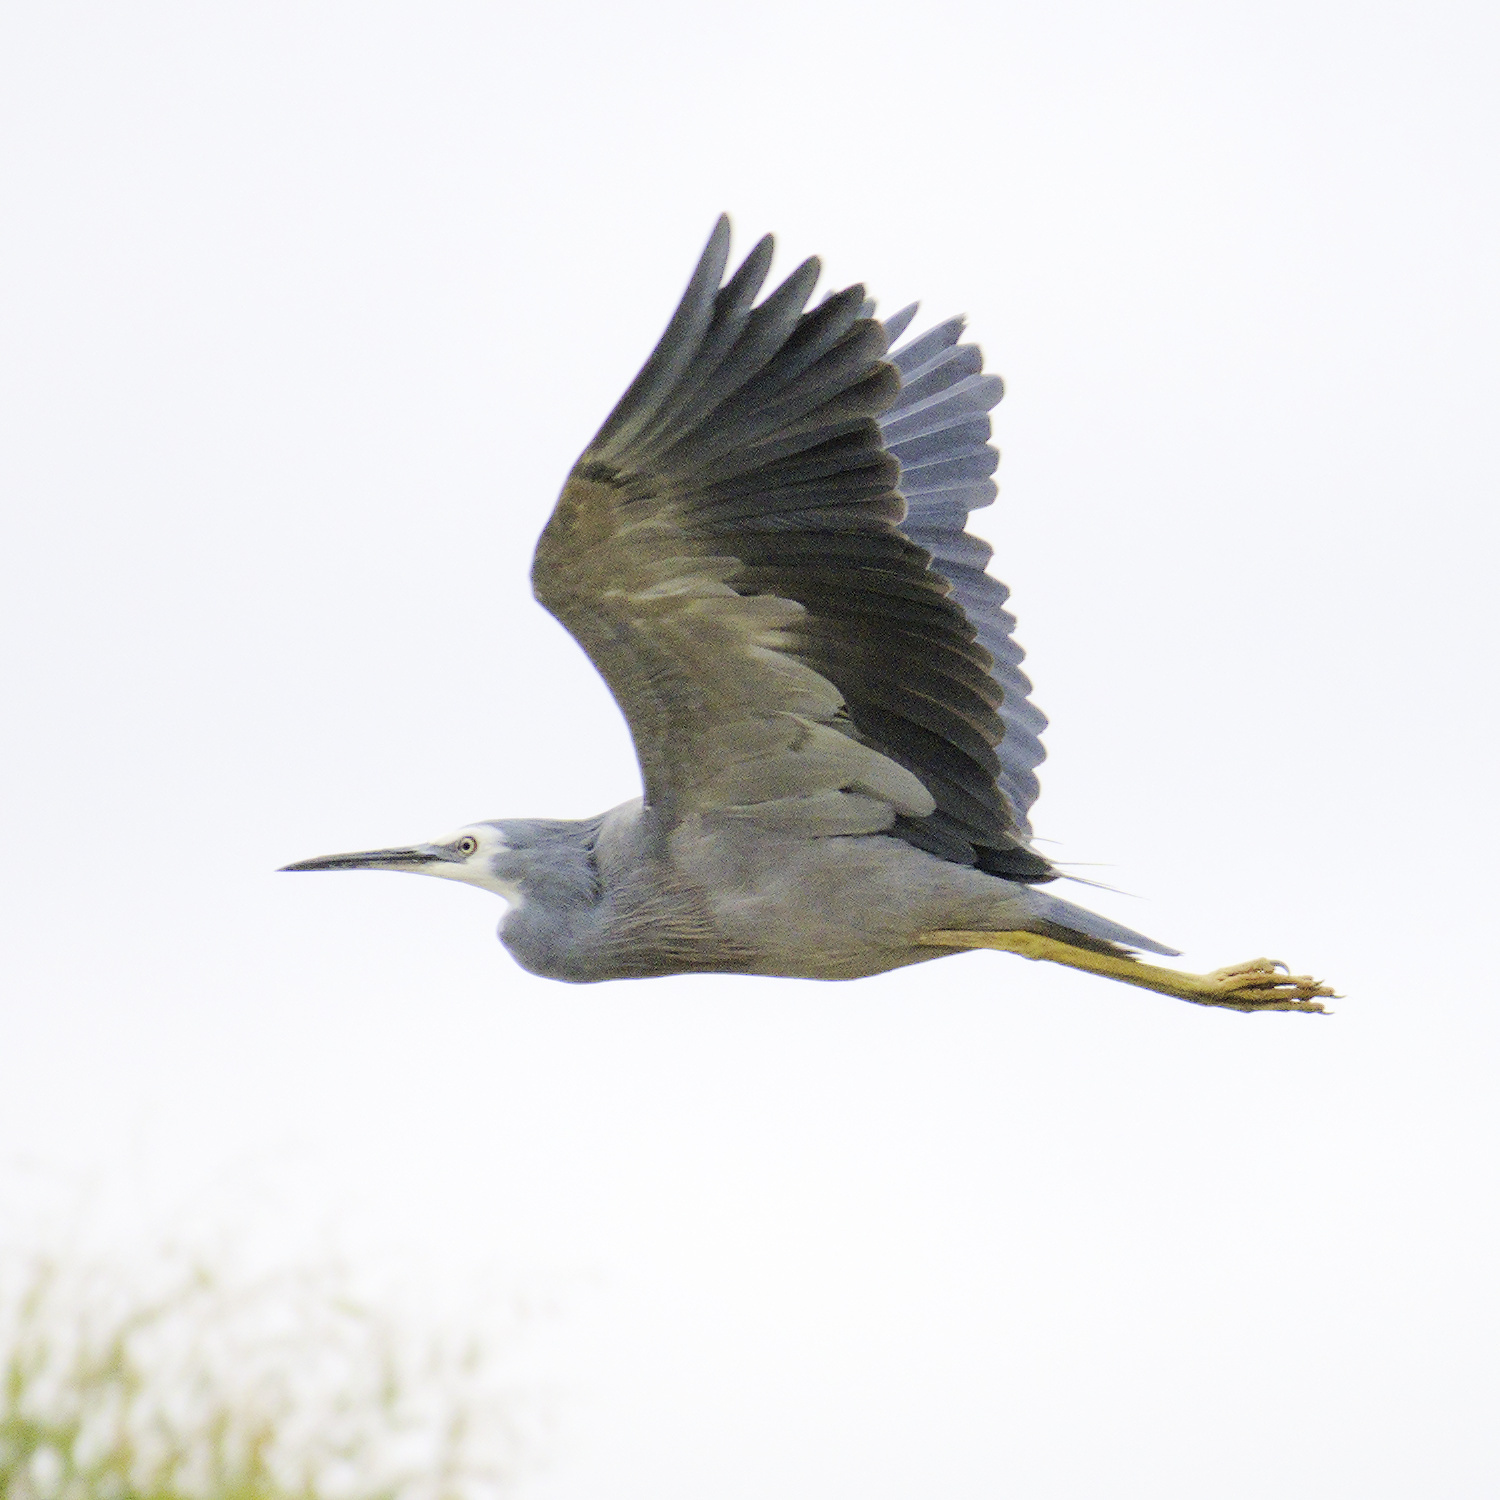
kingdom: Animalia
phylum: Chordata
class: Aves
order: Pelecaniformes
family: Ardeidae
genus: Egretta
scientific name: Egretta novaehollandiae
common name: White-faced heron
